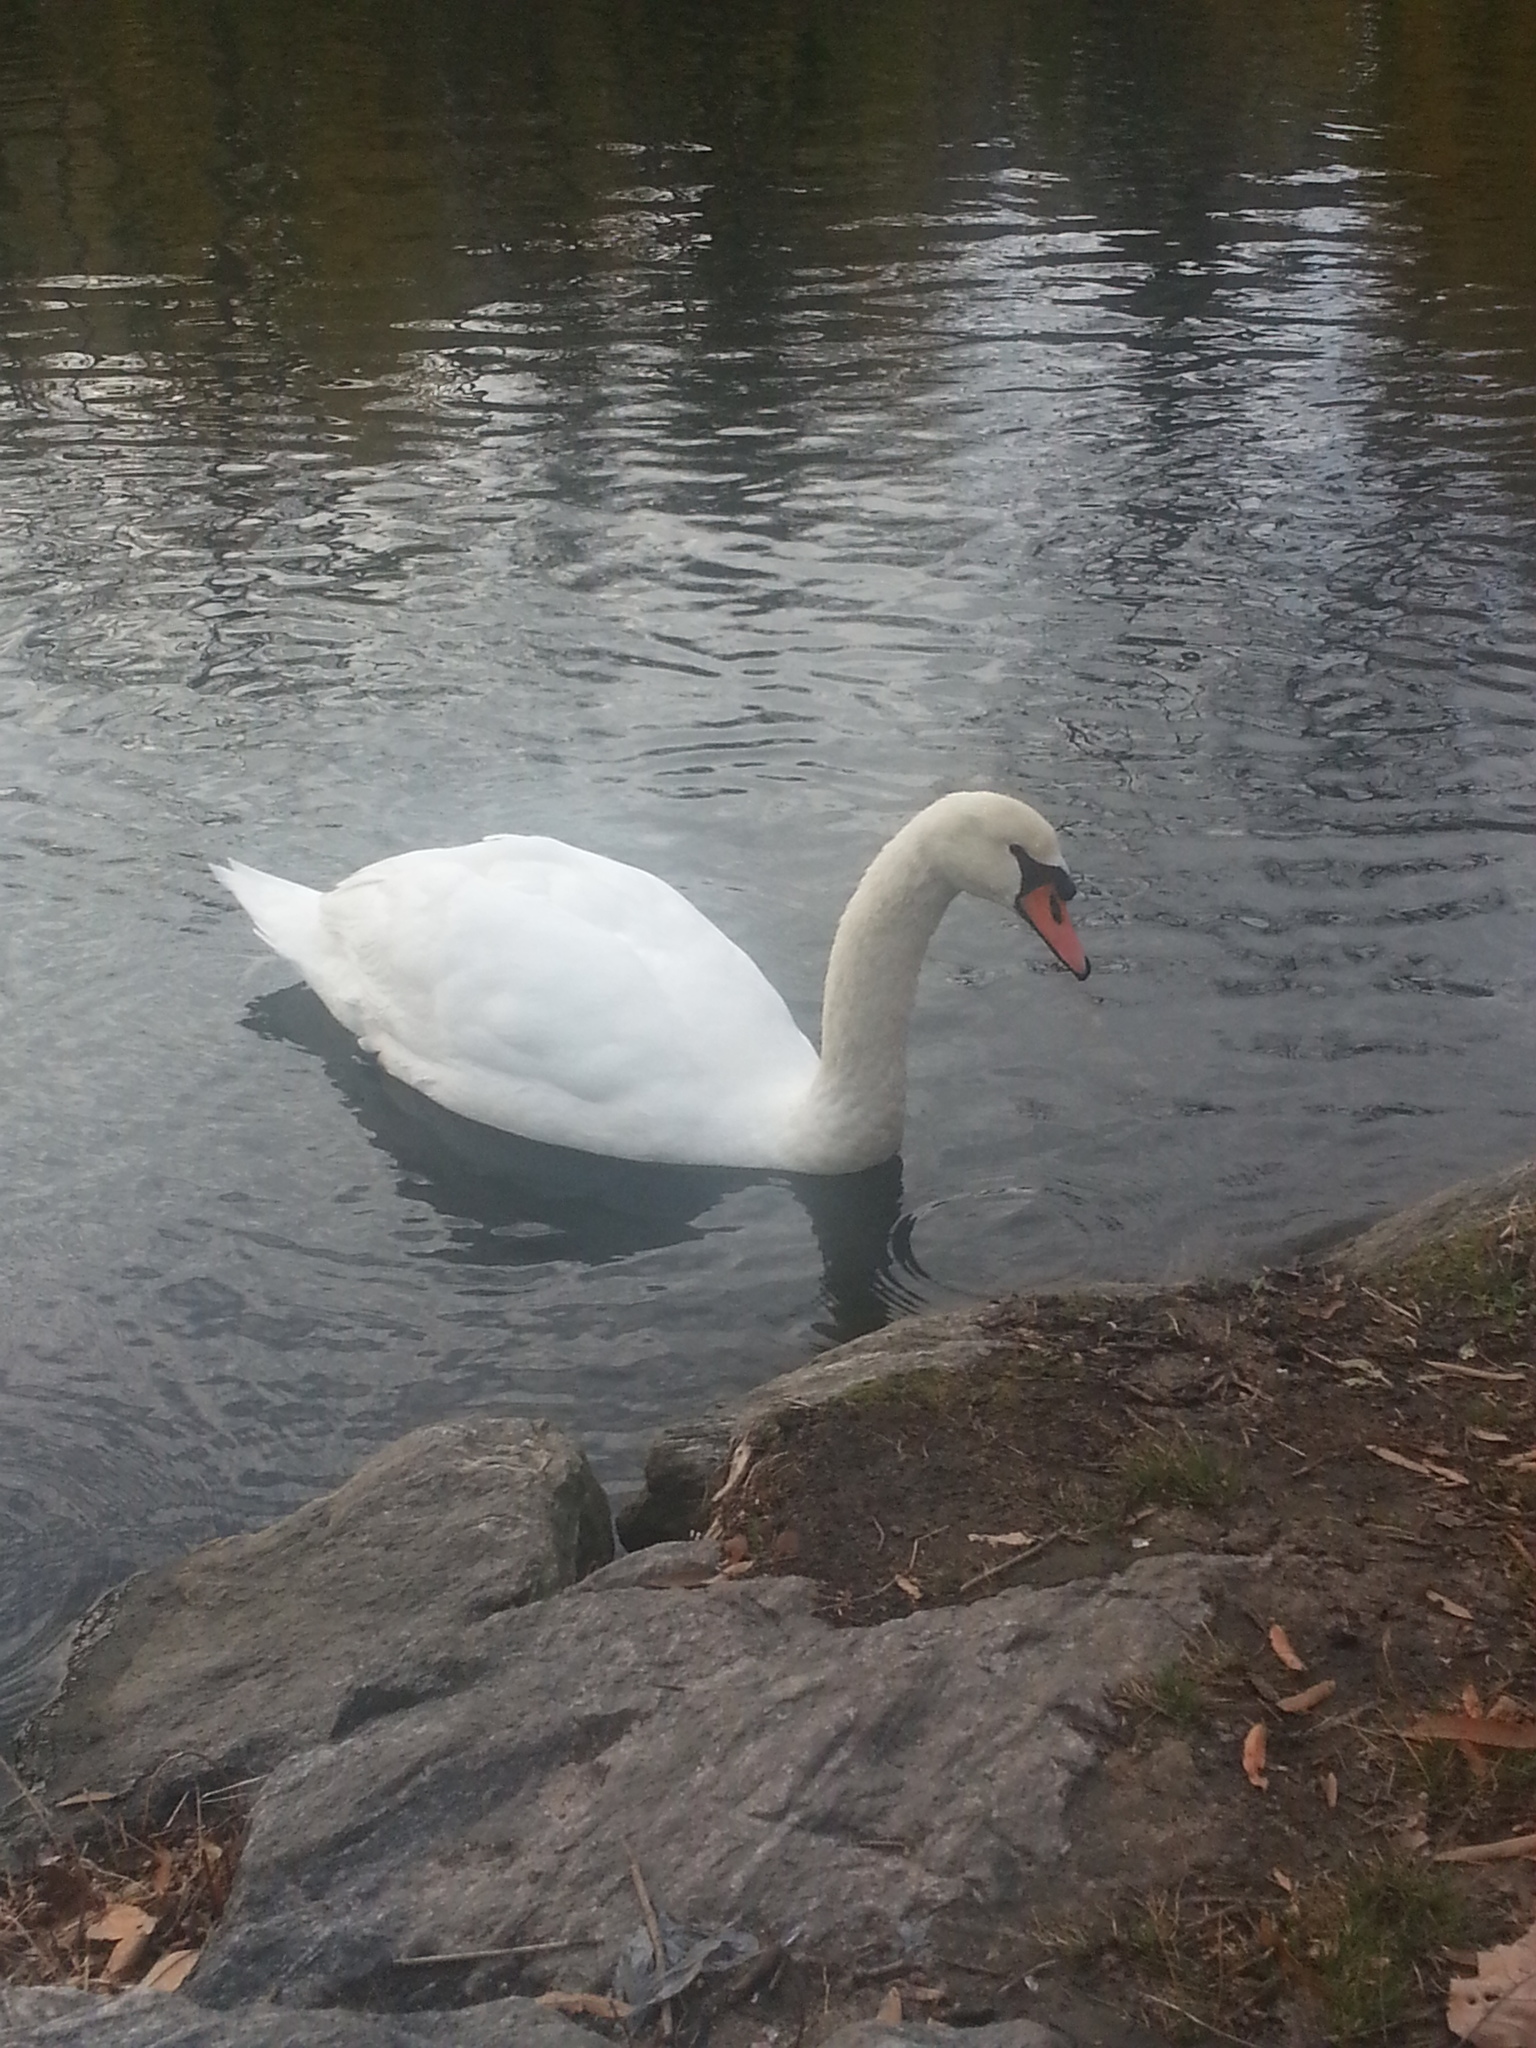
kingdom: Animalia
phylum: Chordata
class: Aves
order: Anseriformes
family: Anatidae
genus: Cygnus
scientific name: Cygnus olor
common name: Mute swan
